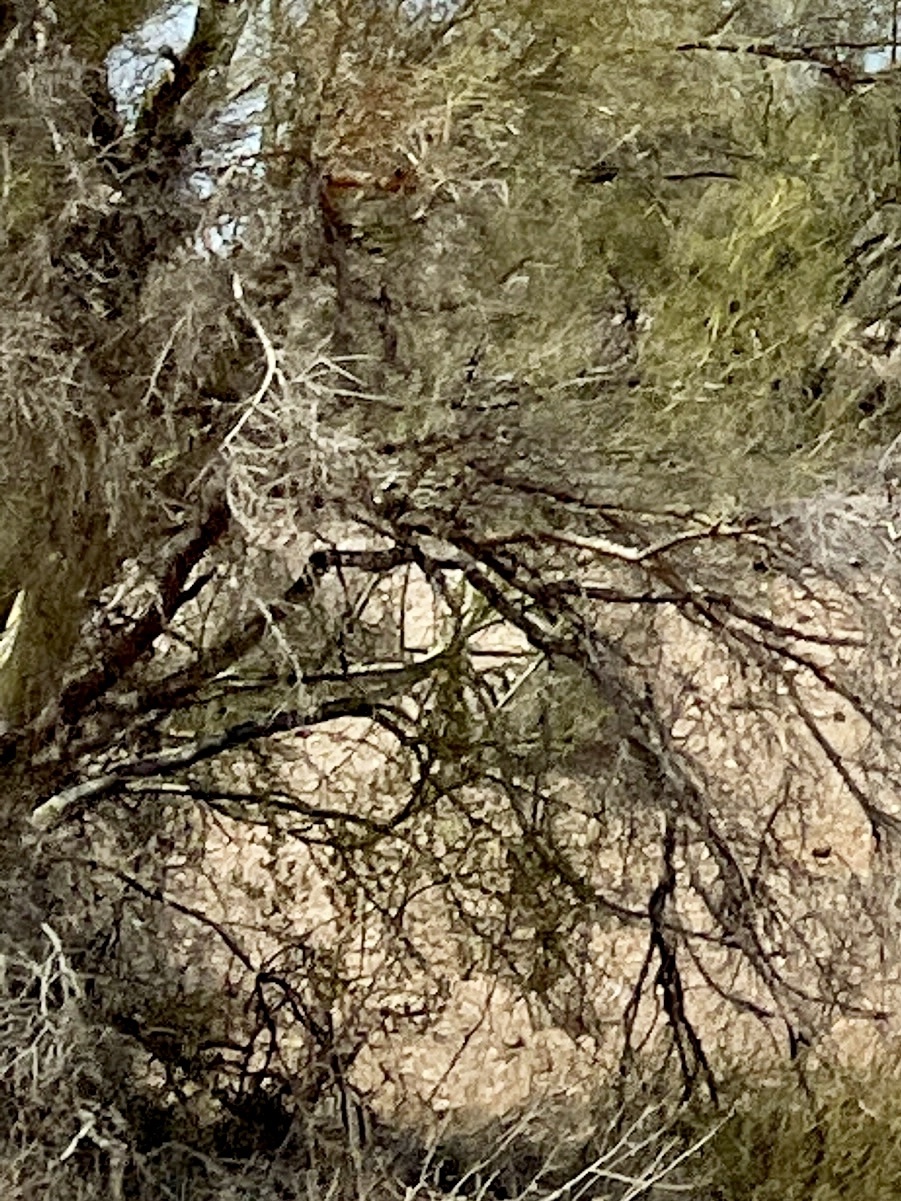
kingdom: Plantae
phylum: Tracheophyta
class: Magnoliopsida
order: Fabales
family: Fabaceae
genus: Parkinsonia
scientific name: Parkinsonia microphylla
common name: Yellow paloverde
